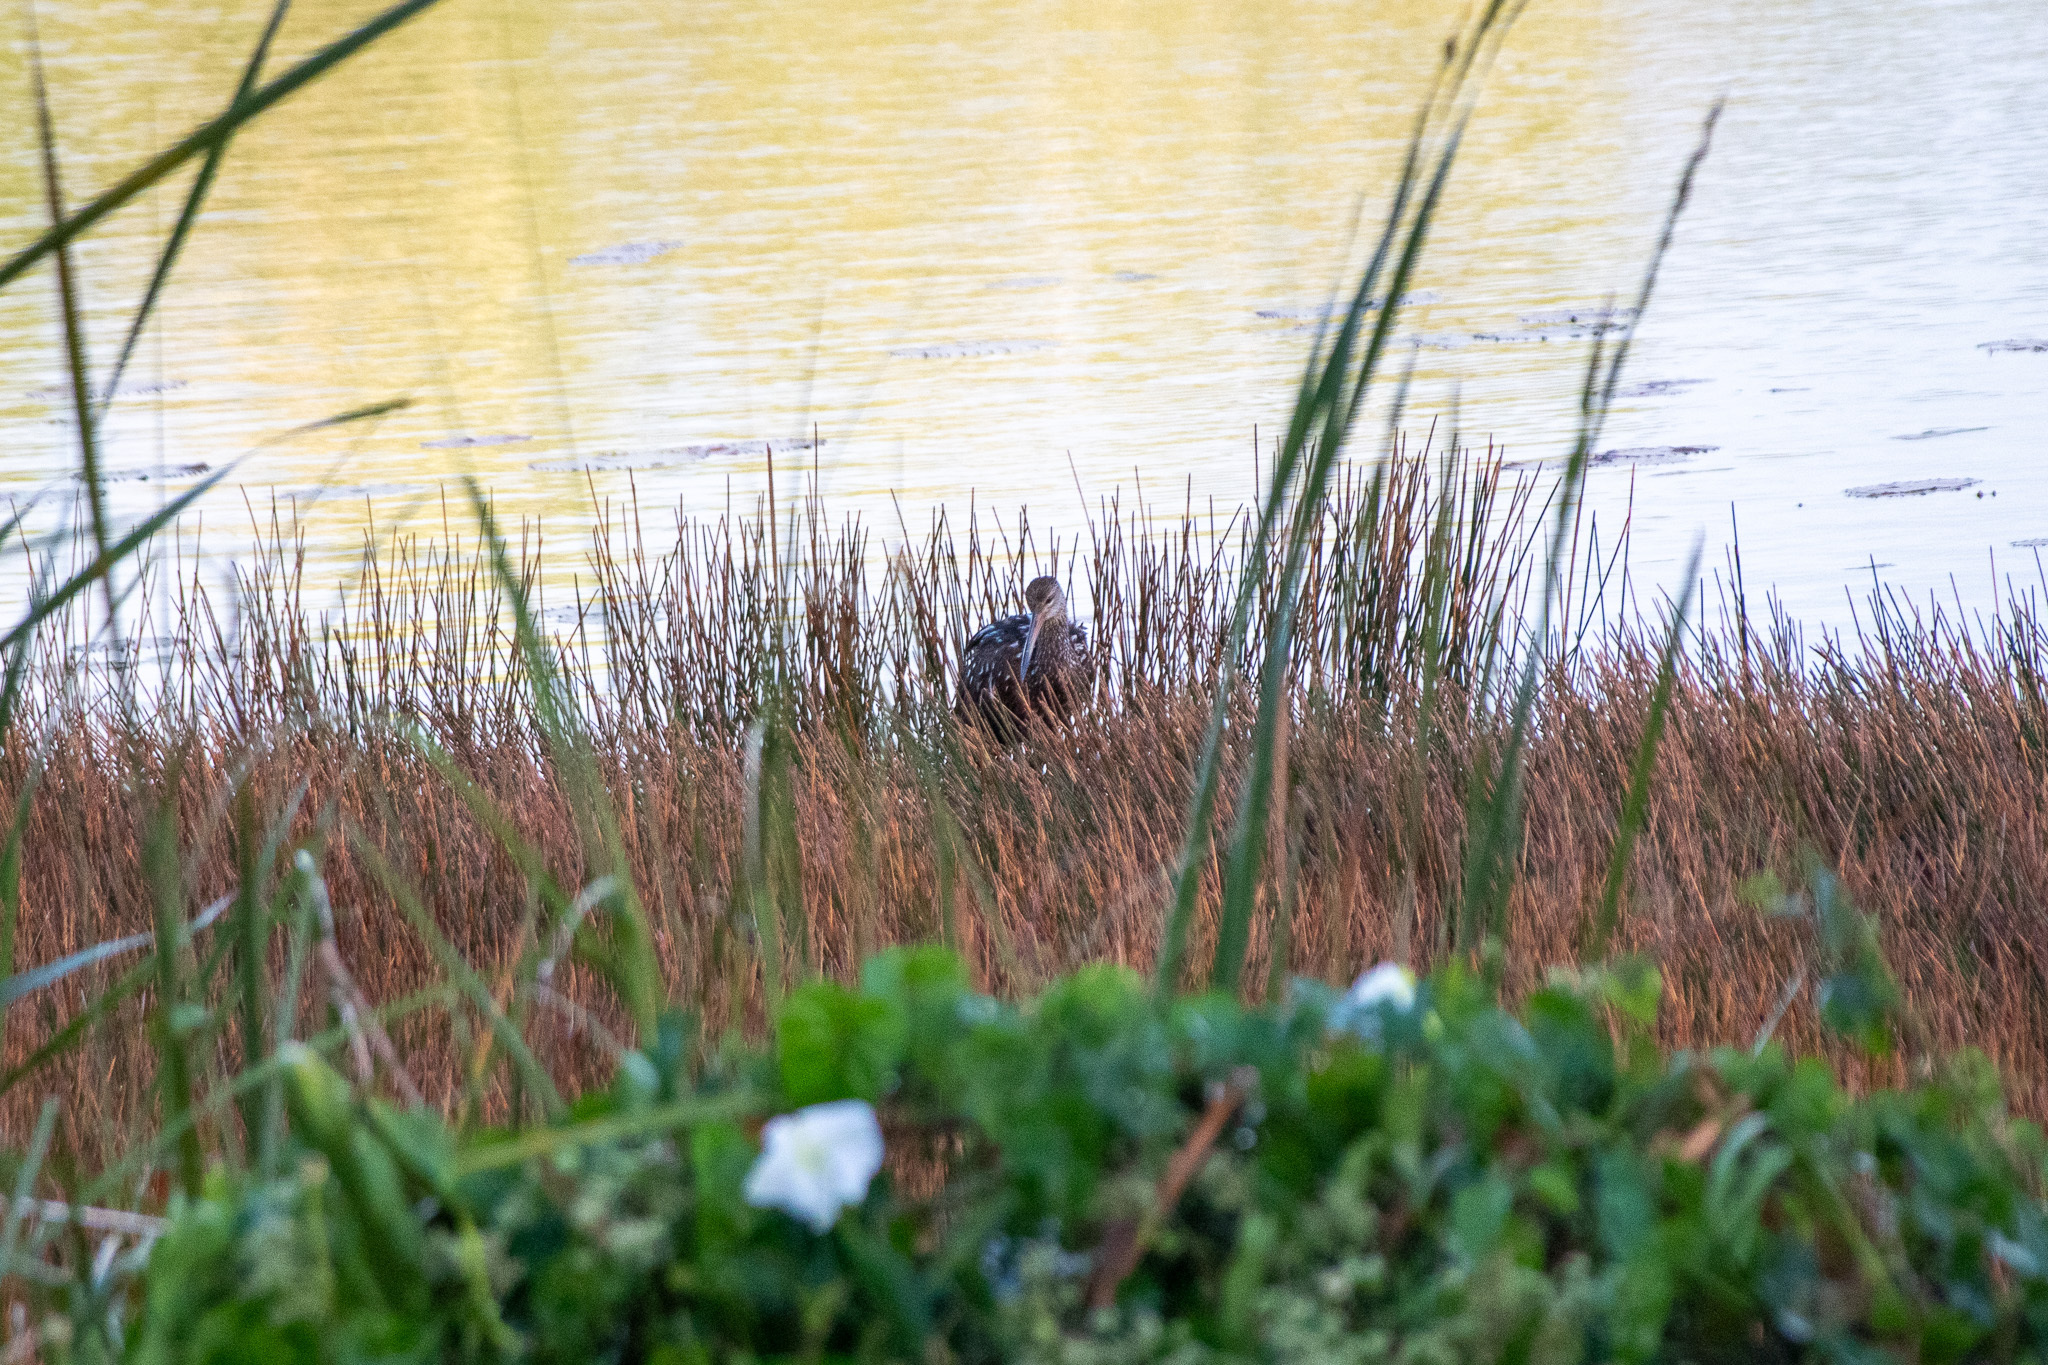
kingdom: Animalia
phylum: Chordata
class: Aves
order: Gruiformes
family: Aramidae
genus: Aramus
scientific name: Aramus guarauna
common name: Limpkin
